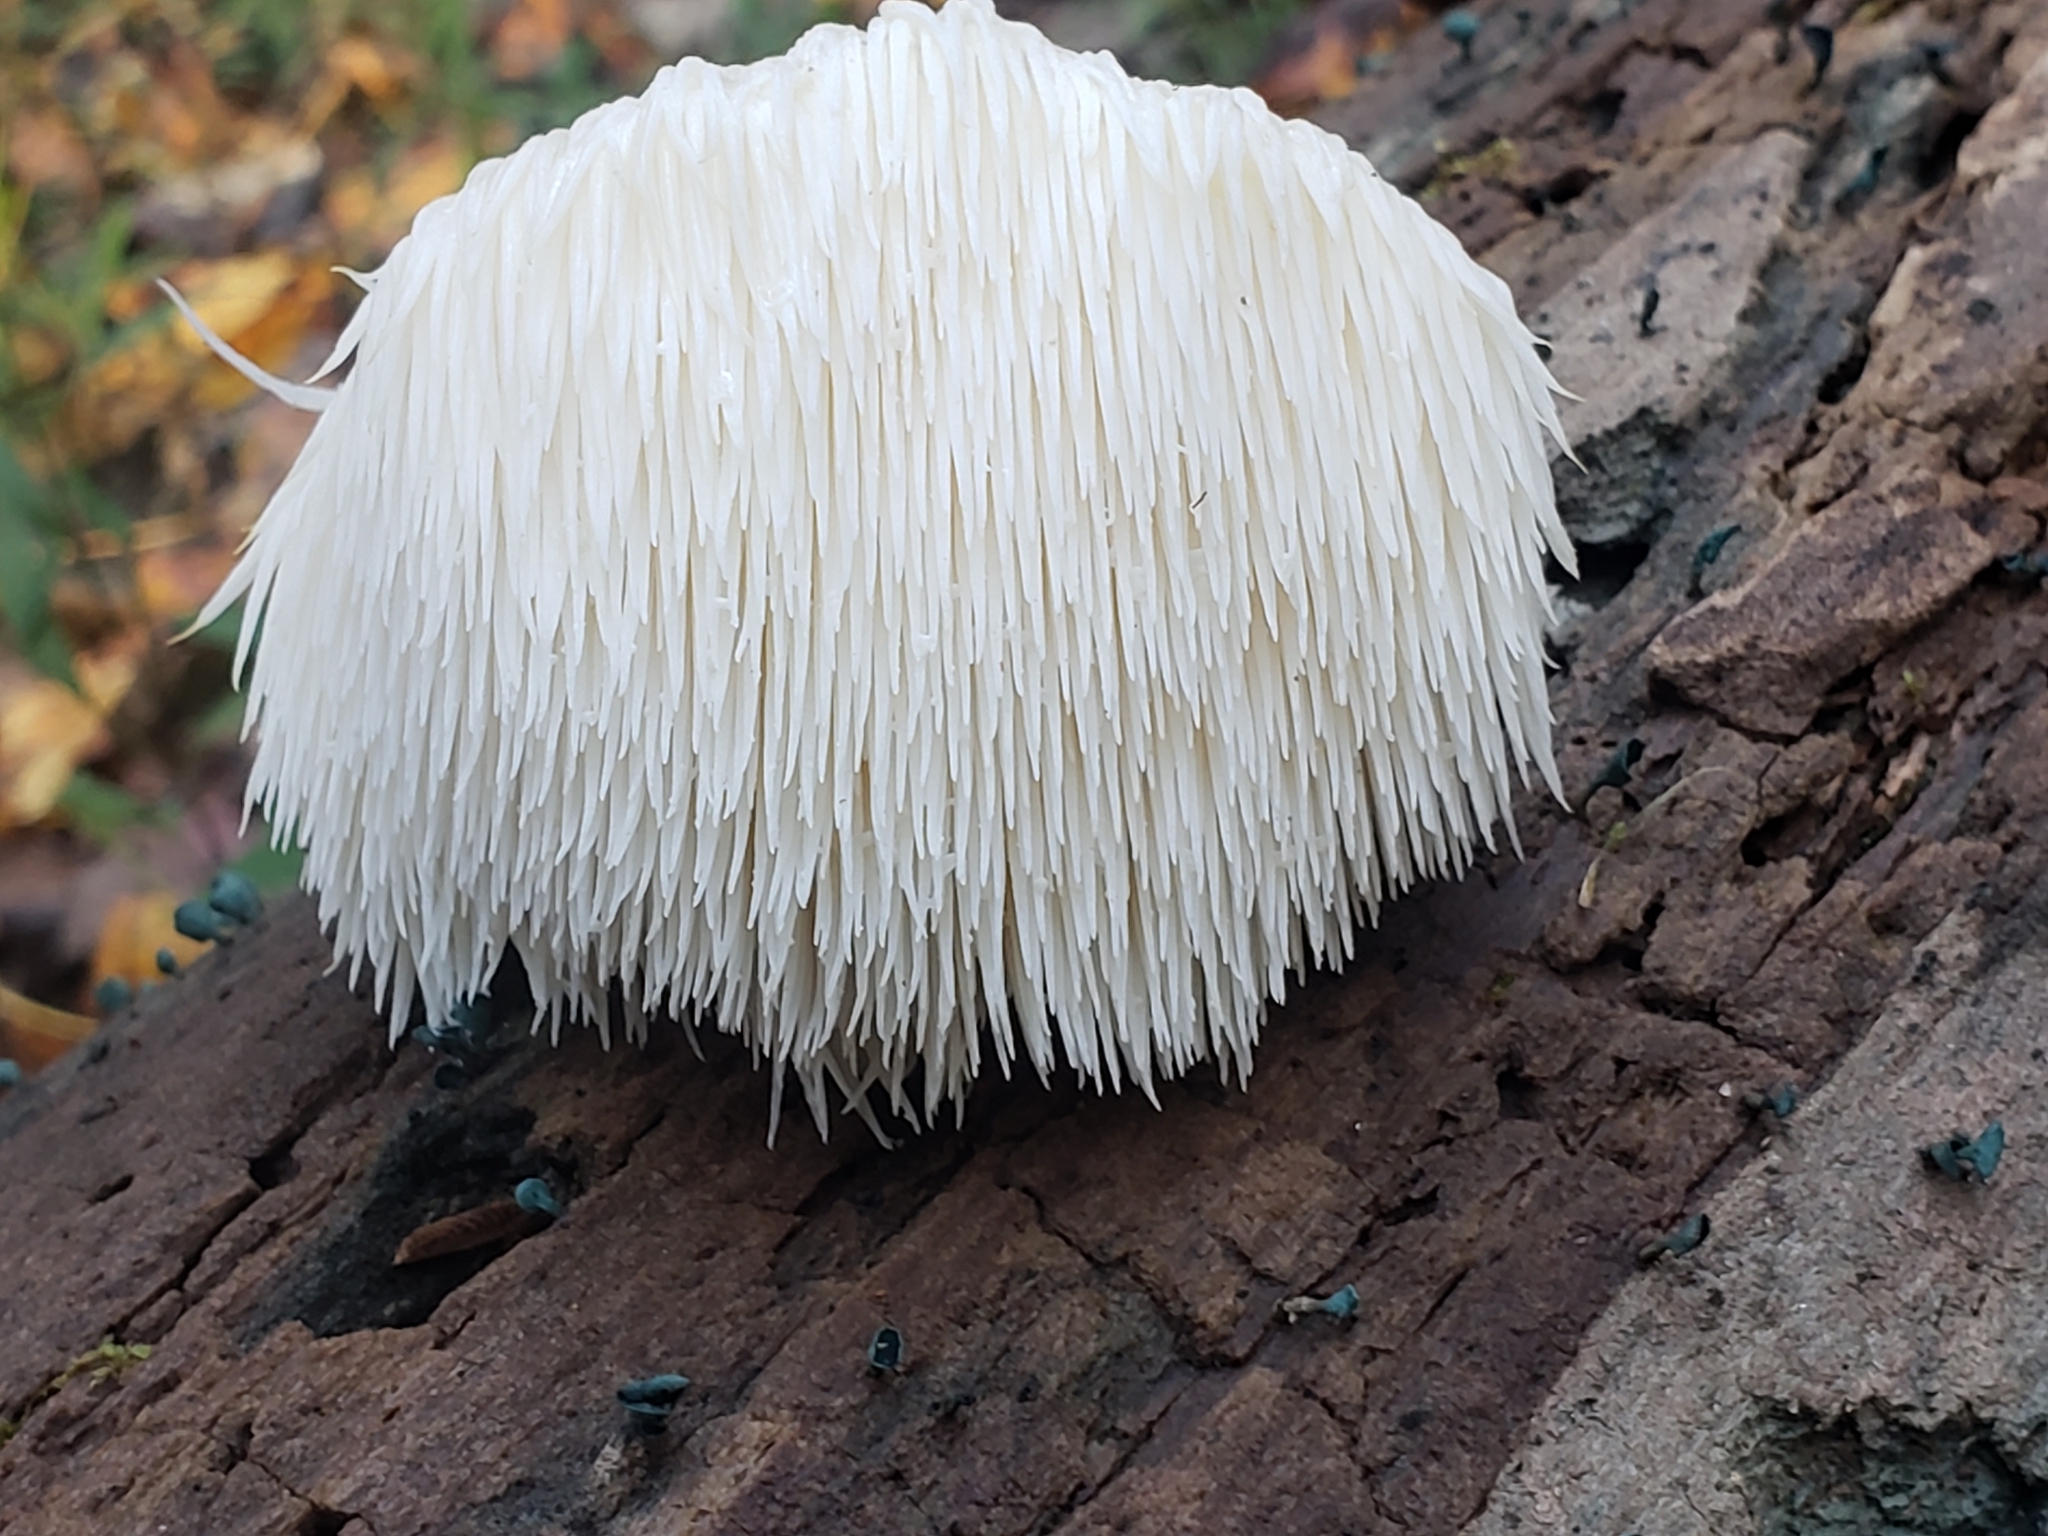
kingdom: Fungi
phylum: Basidiomycota
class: Agaricomycetes
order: Russulales
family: Hericiaceae
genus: Hericium
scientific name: Hericium erinaceus
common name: Bearded tooth
